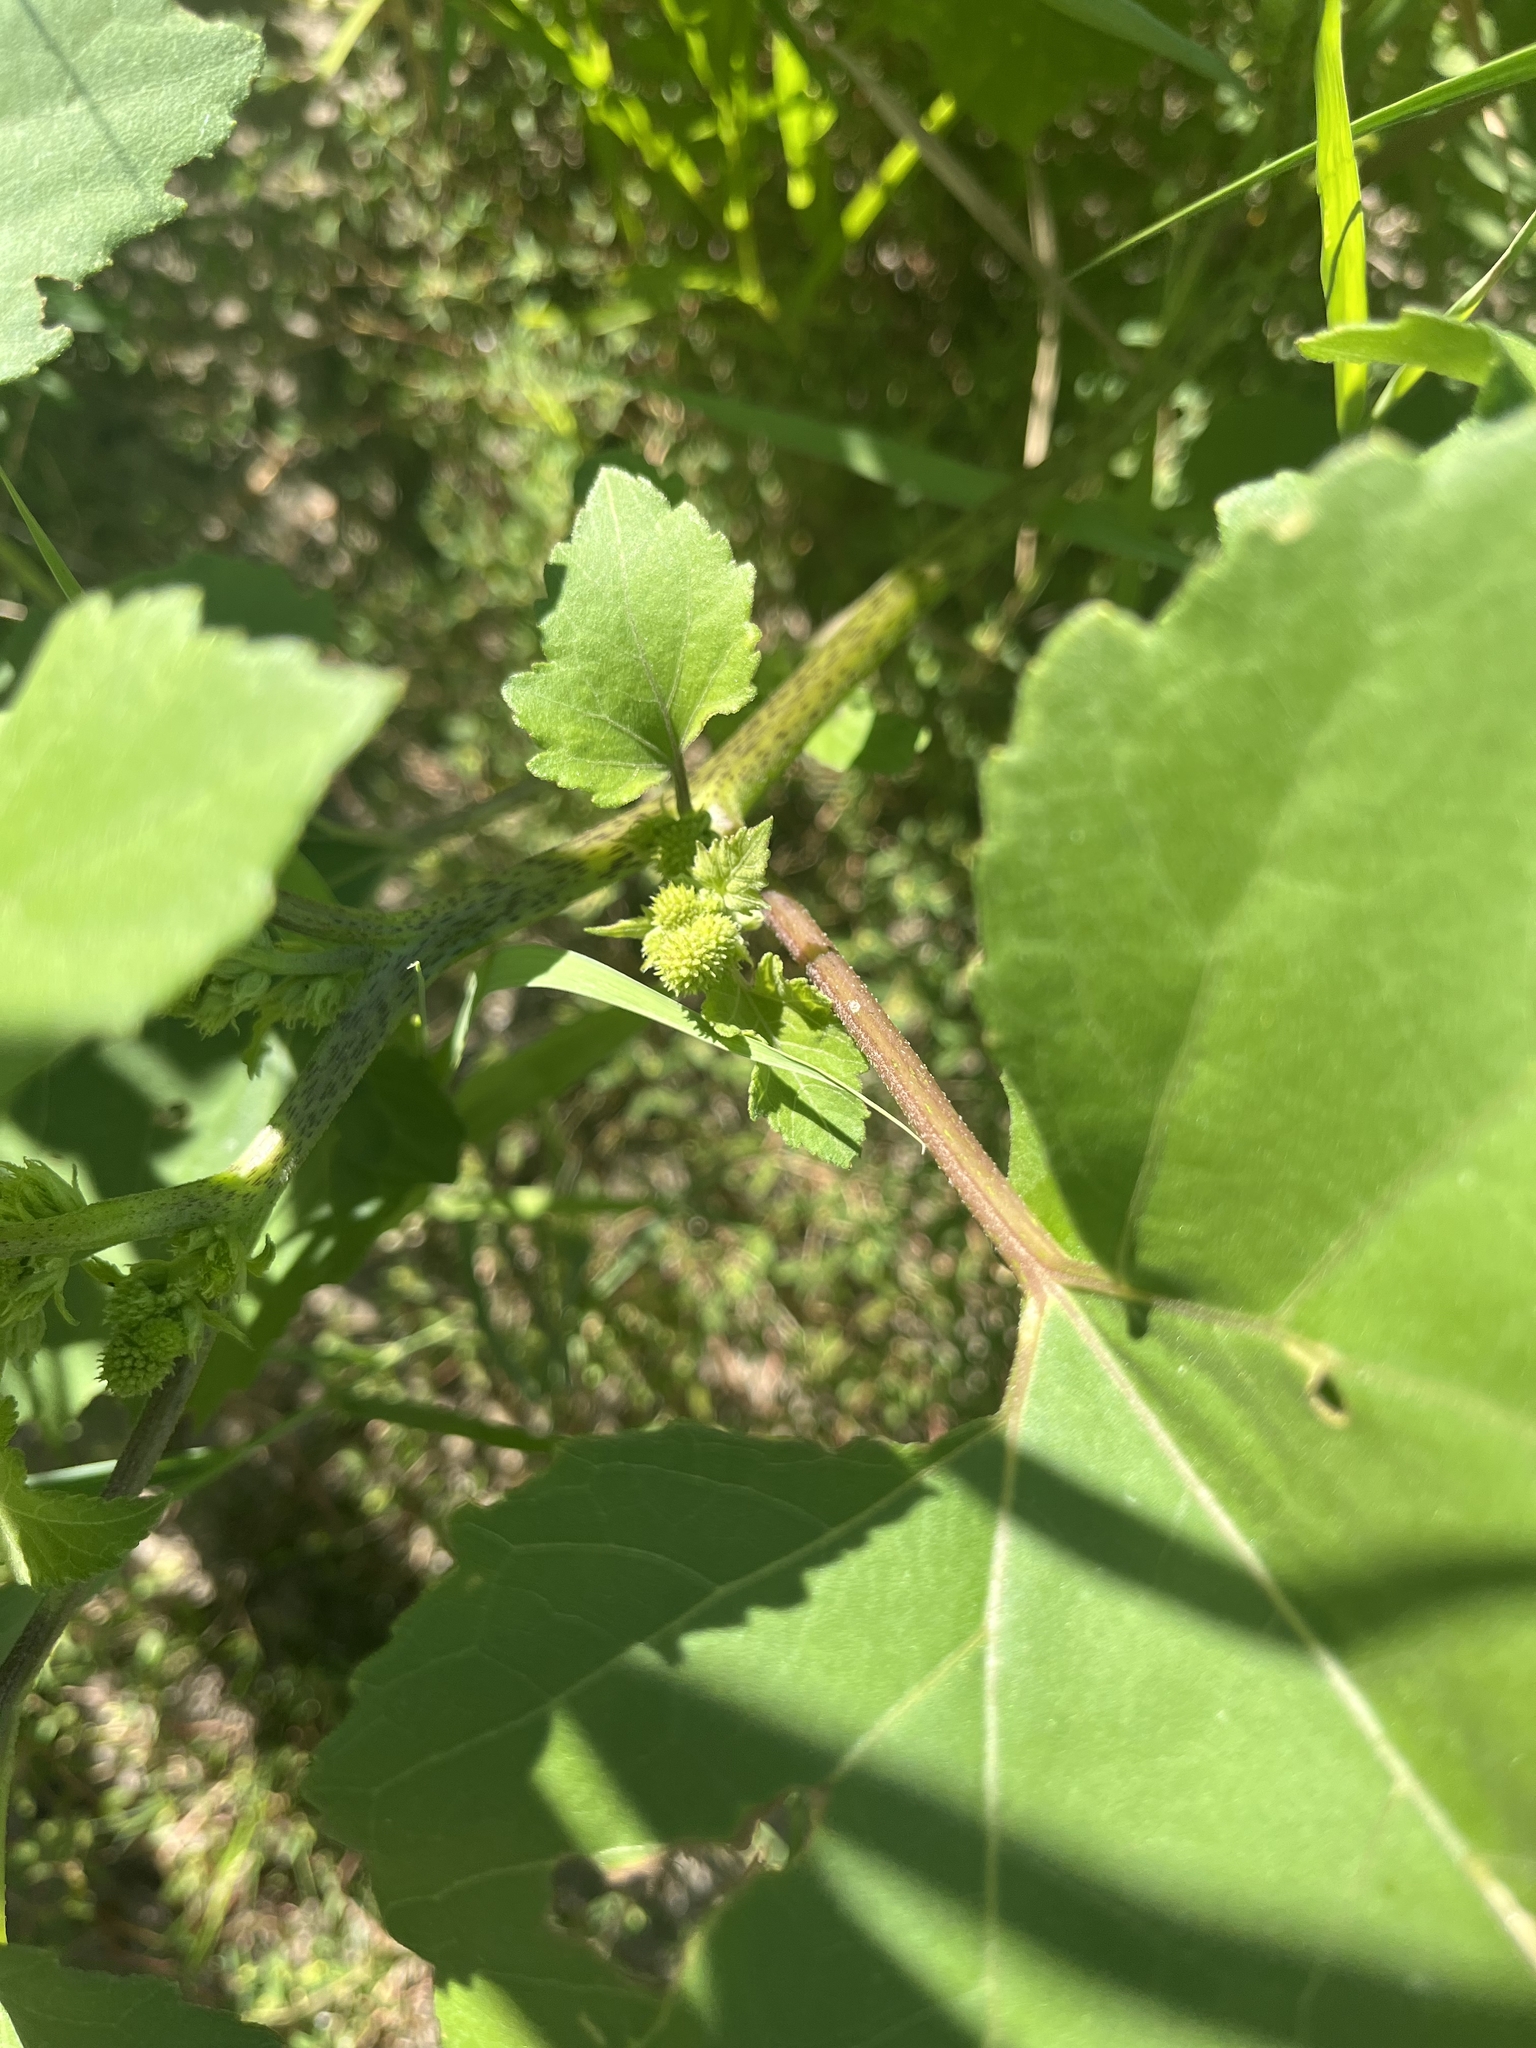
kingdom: Plantae
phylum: Tracheophyta
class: Magnoliopsida
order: Asterales
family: Asteraceae
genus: Xanthium
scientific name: Xanthium strumarium
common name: Rough cocklebur
